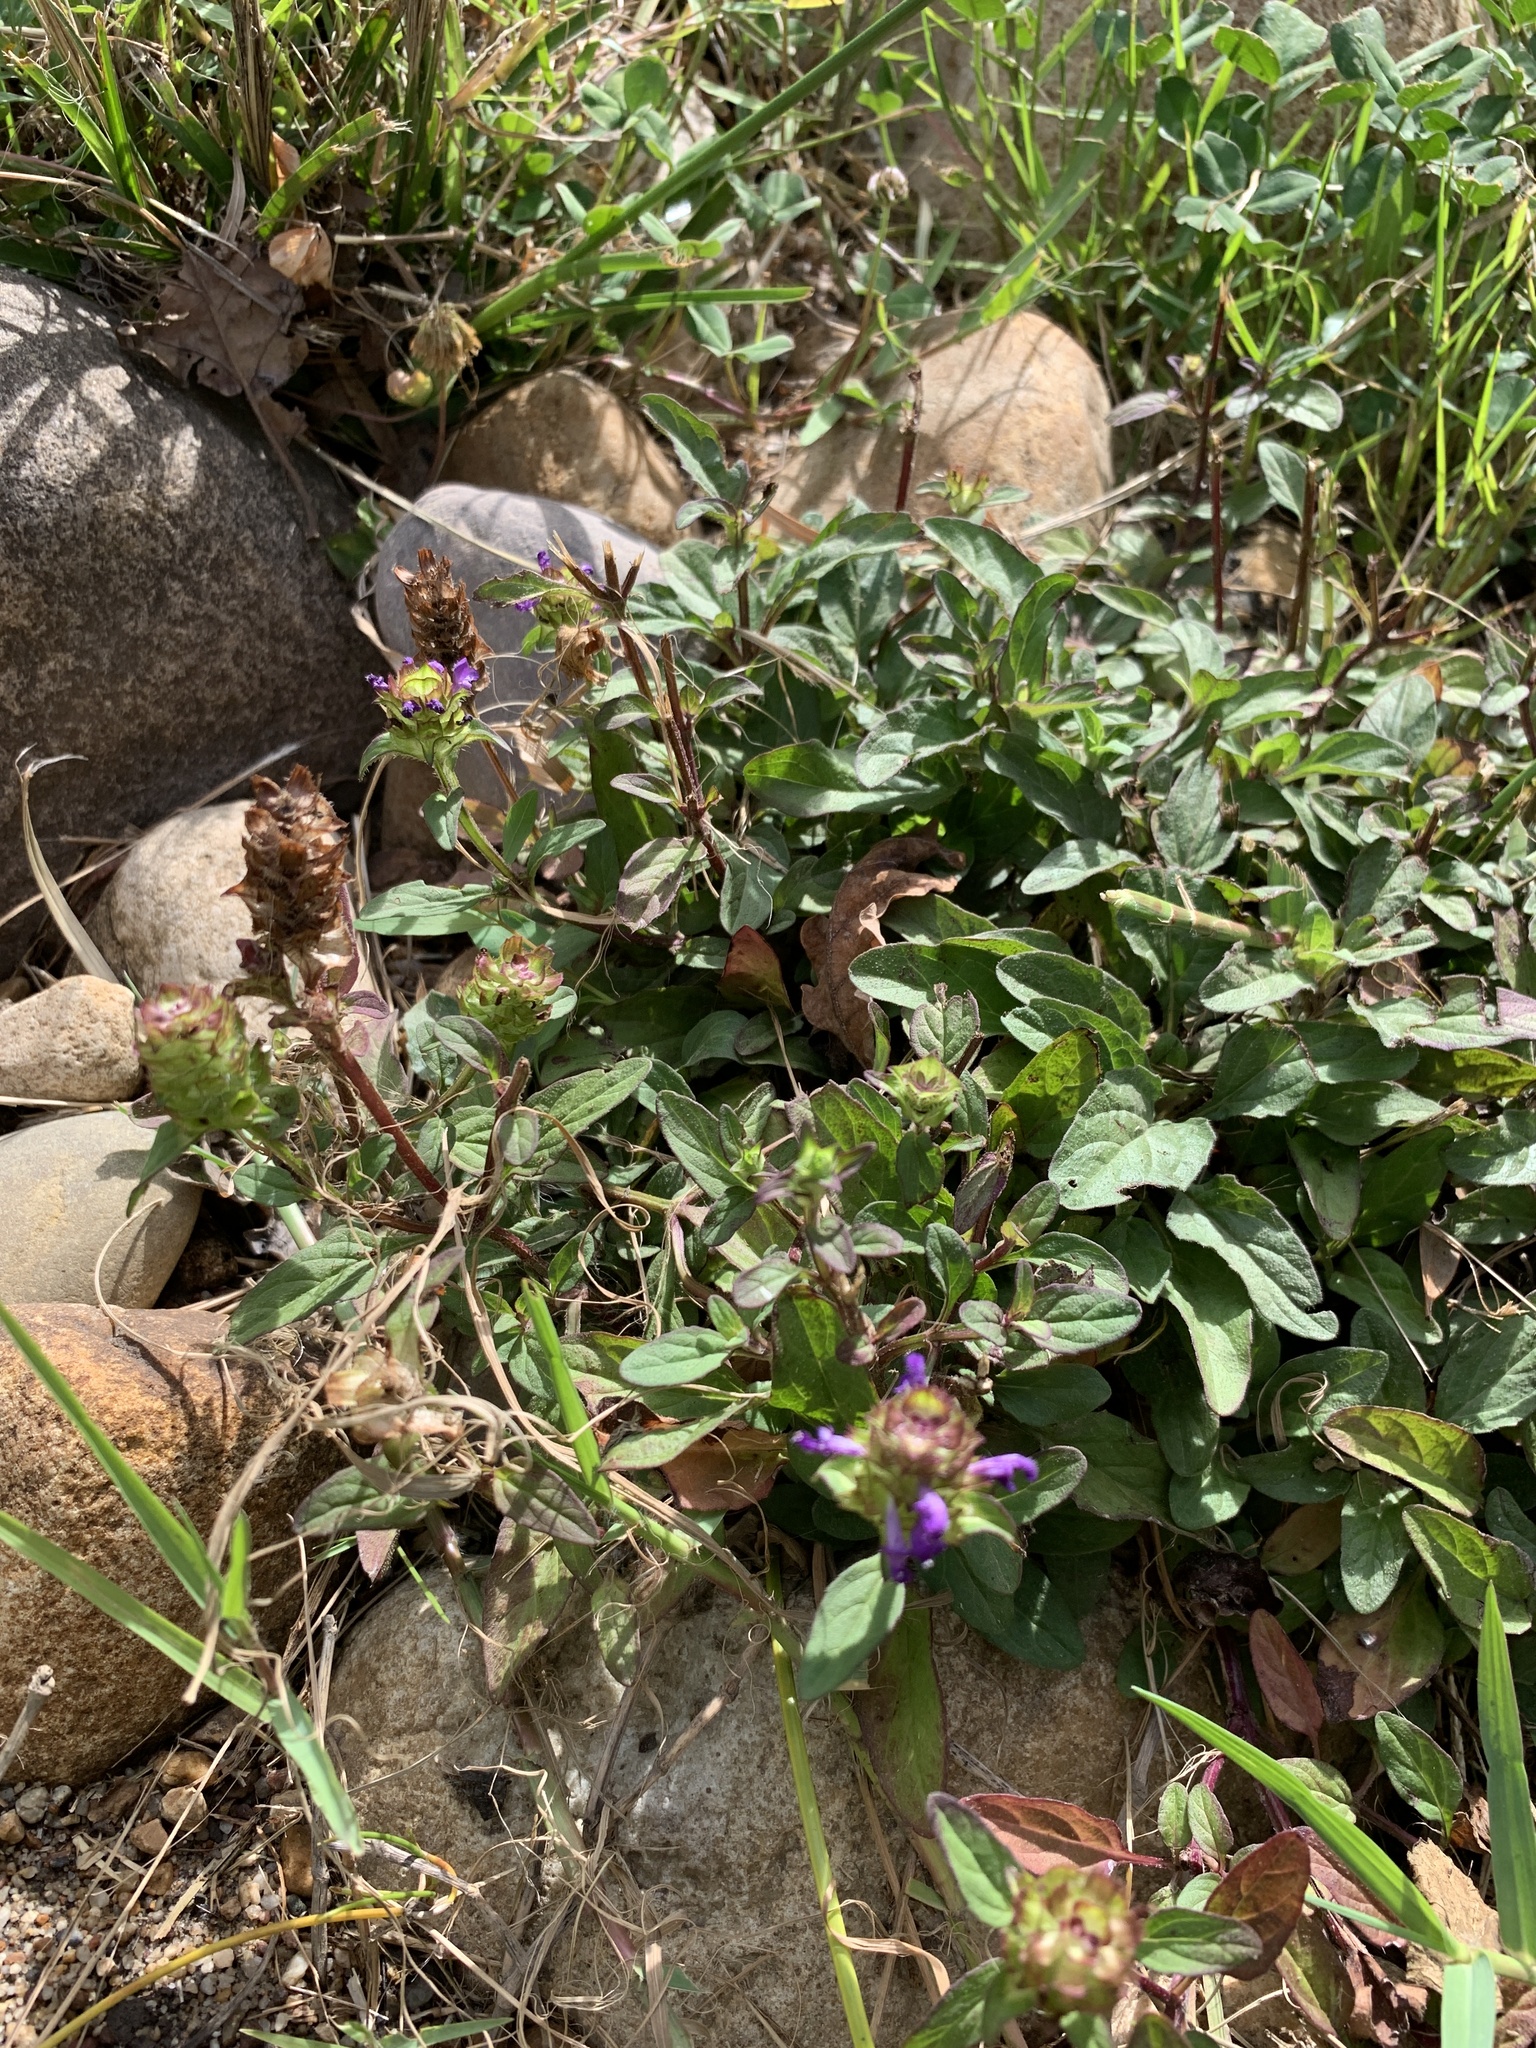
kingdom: Plantae
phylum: Tracheophyta
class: Magnoliopsida
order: Lamiales
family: Lamiaceae
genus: Prunella
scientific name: Prunella vulgaris
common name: Heal-all
